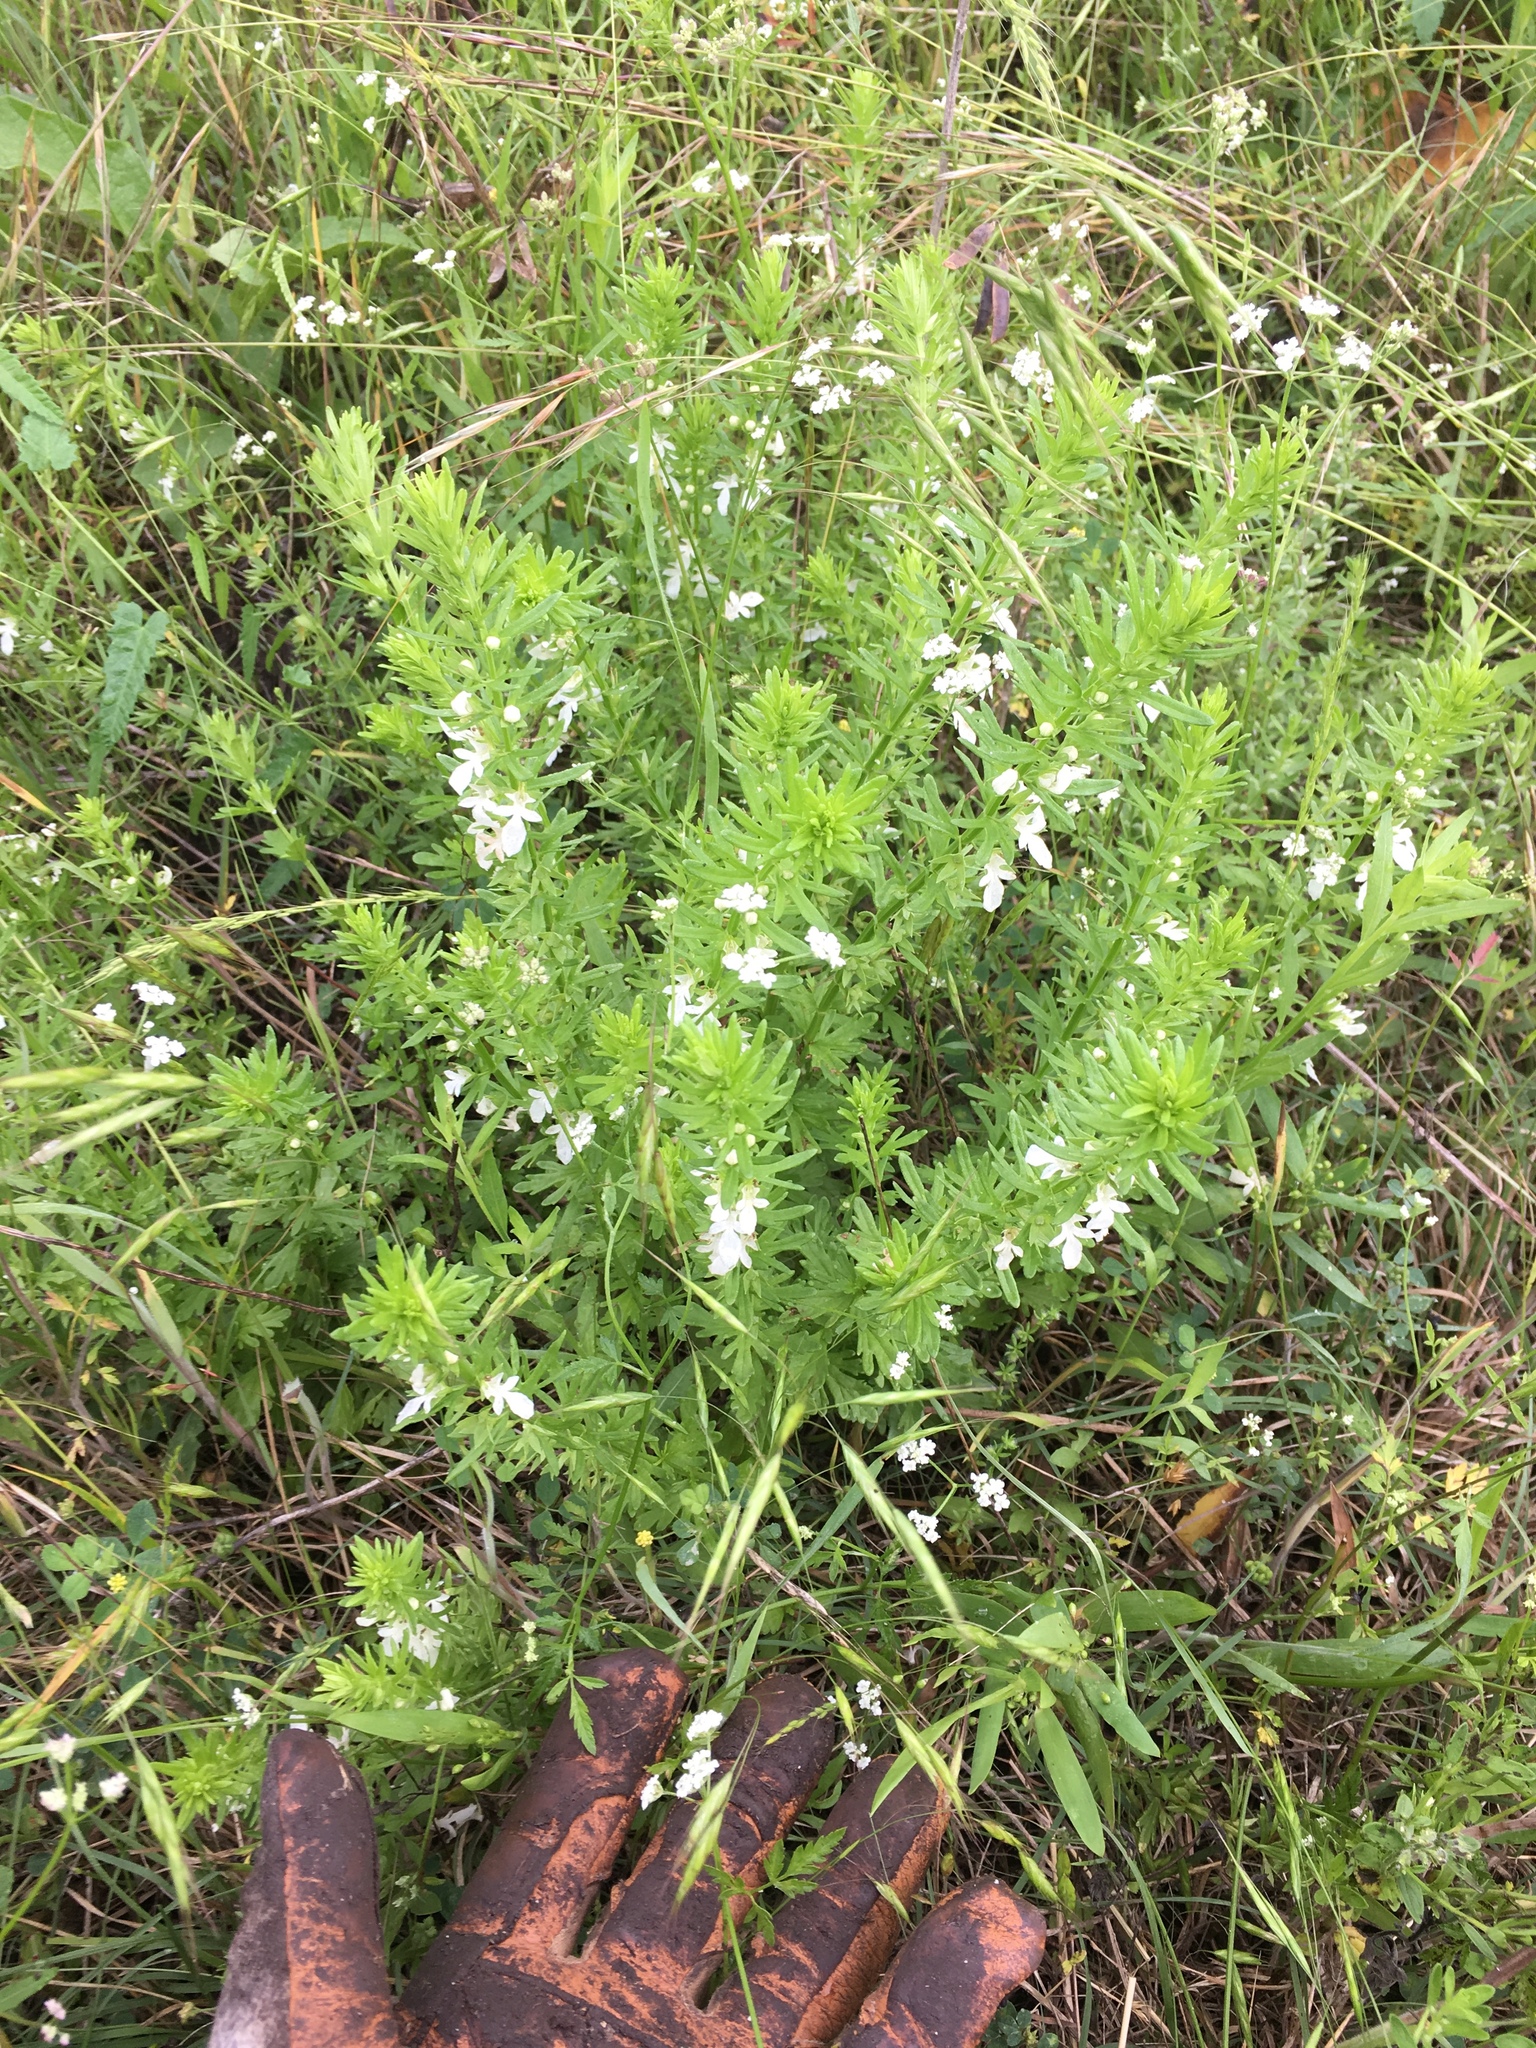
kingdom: Plantae
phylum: Tracheophyta
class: Magnoliopsida
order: Lamiales
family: Lamiaceae
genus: Teucrium
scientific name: Teucrium cubense
